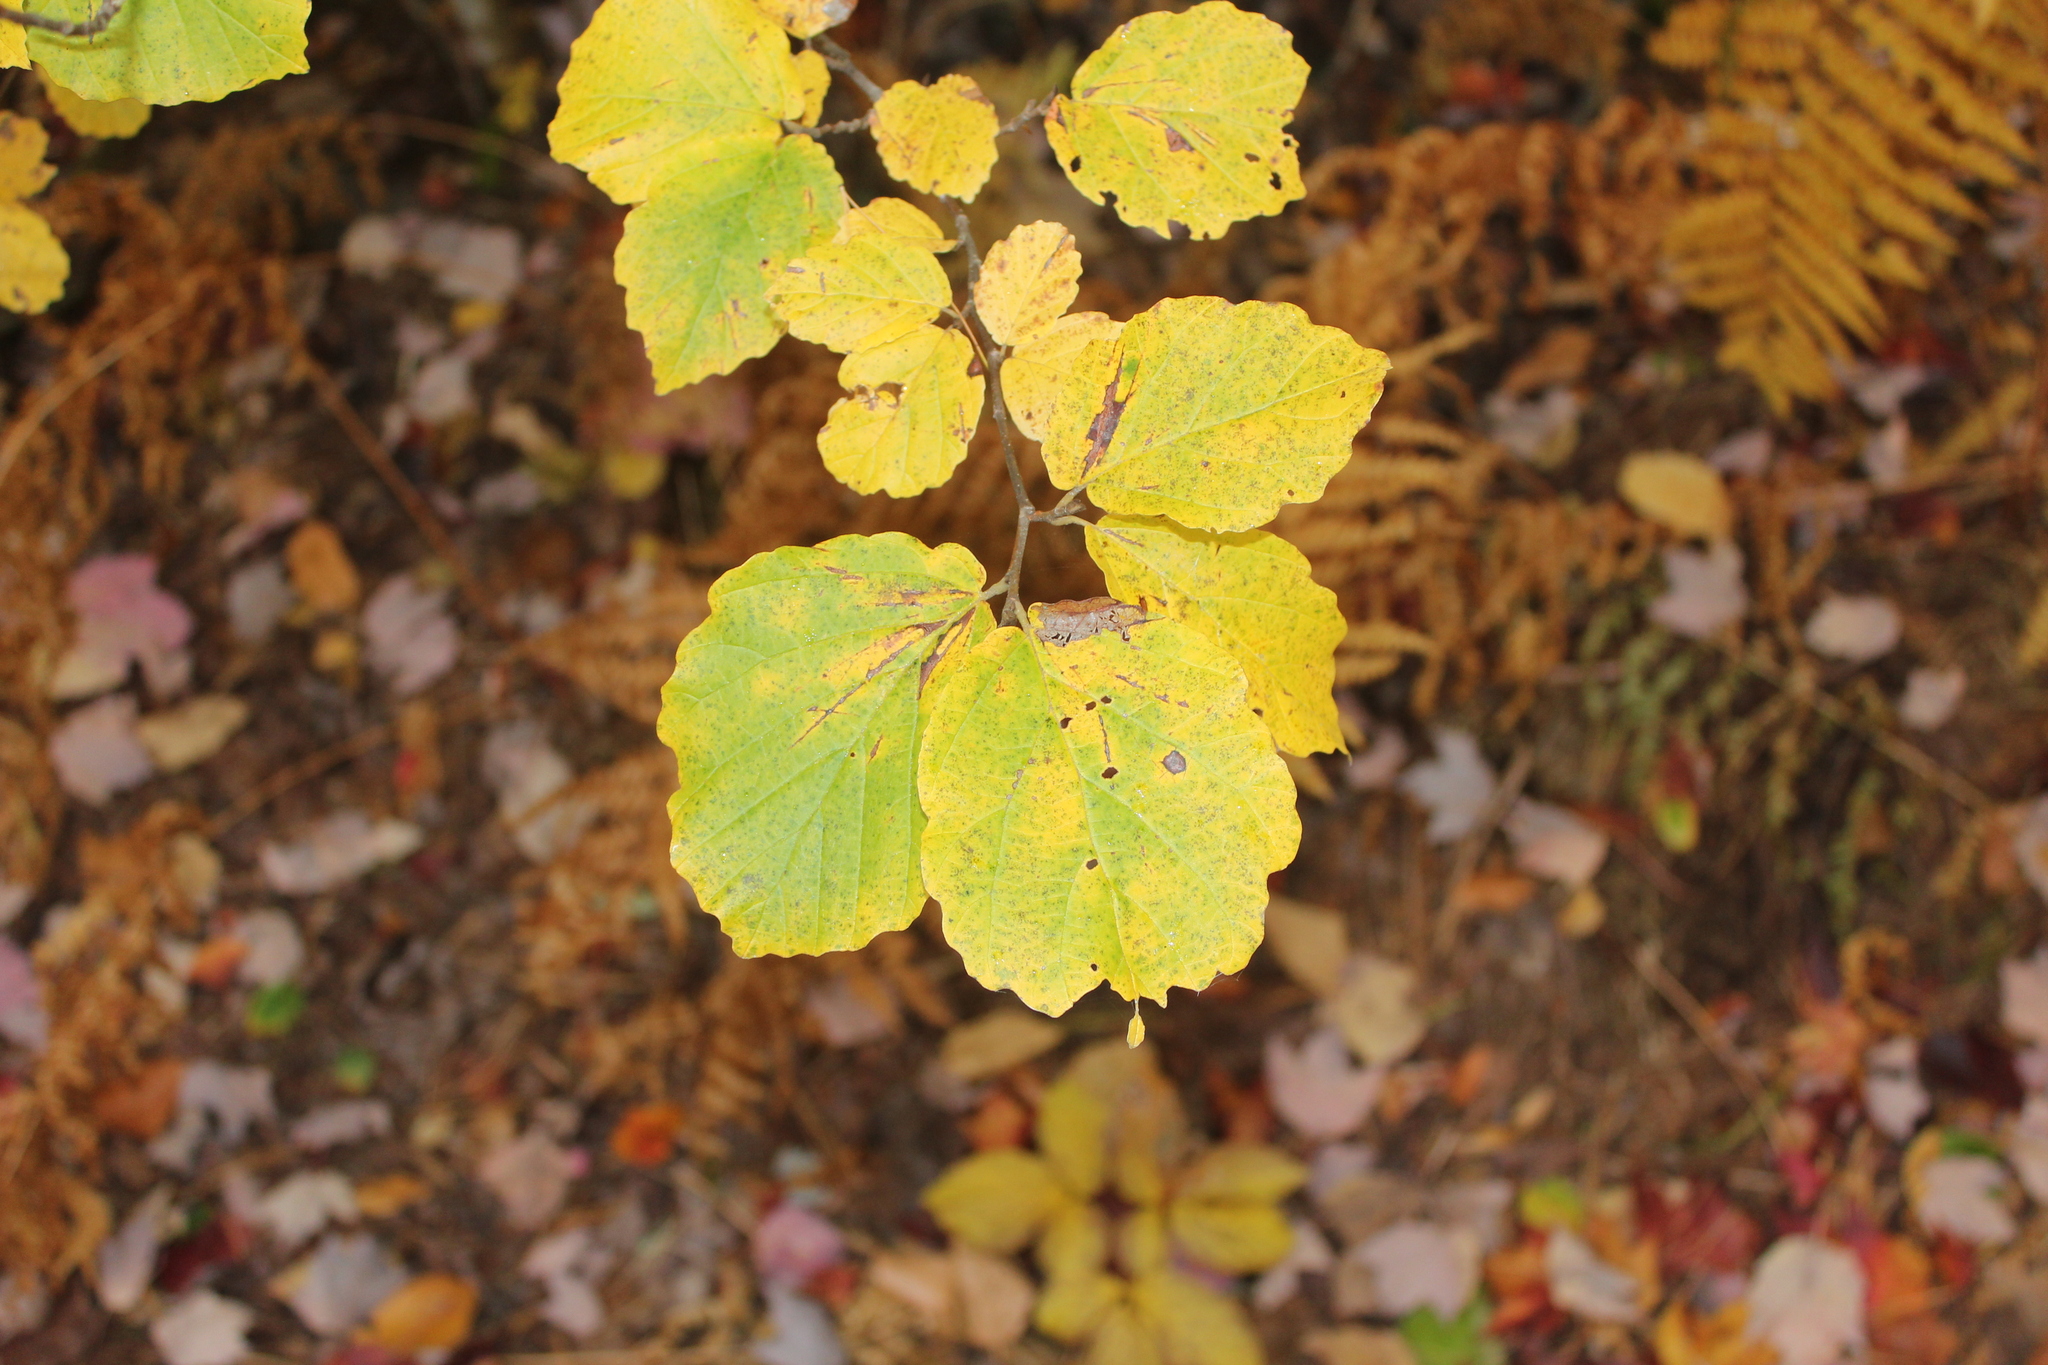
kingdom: Plantae
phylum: Tracheophyta
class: Magnoliopsida
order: Saxifragales
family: Hamamelidaceae
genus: Hamamelis
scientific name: Hamamelis virginiana
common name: Witch-hazel
